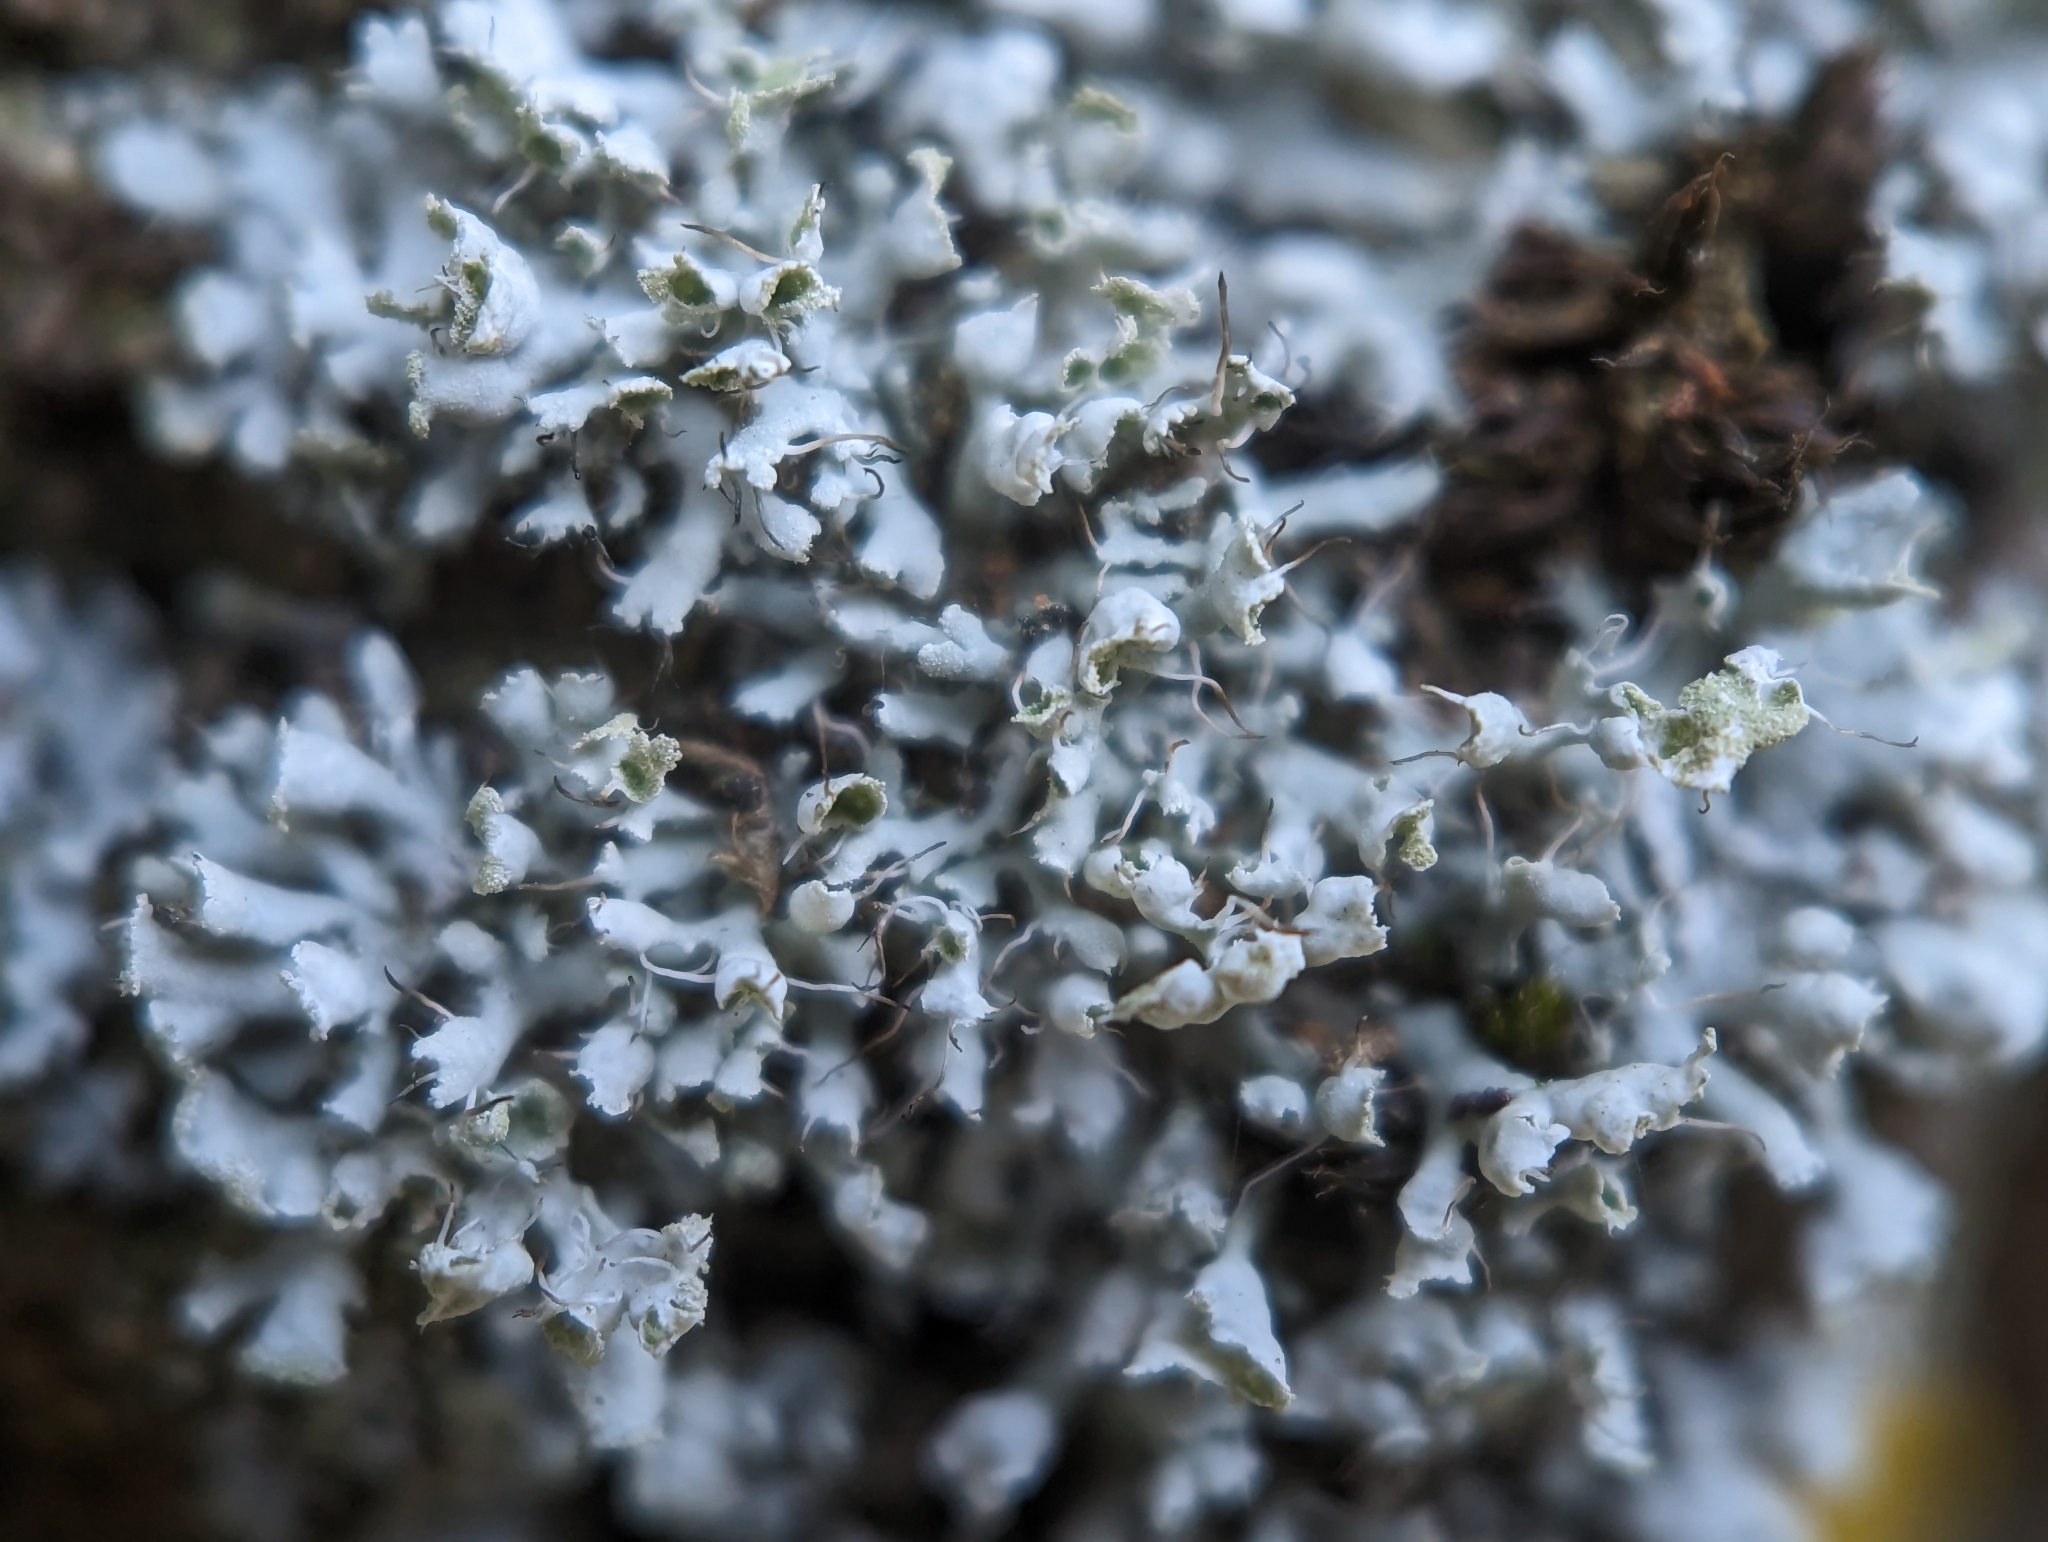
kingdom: Fungi
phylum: Ascomycota
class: Lecanoromycetes
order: Caliciales
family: Physciaceae
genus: Physcia
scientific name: Physcia adscendens
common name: Hooded rosette lichen
